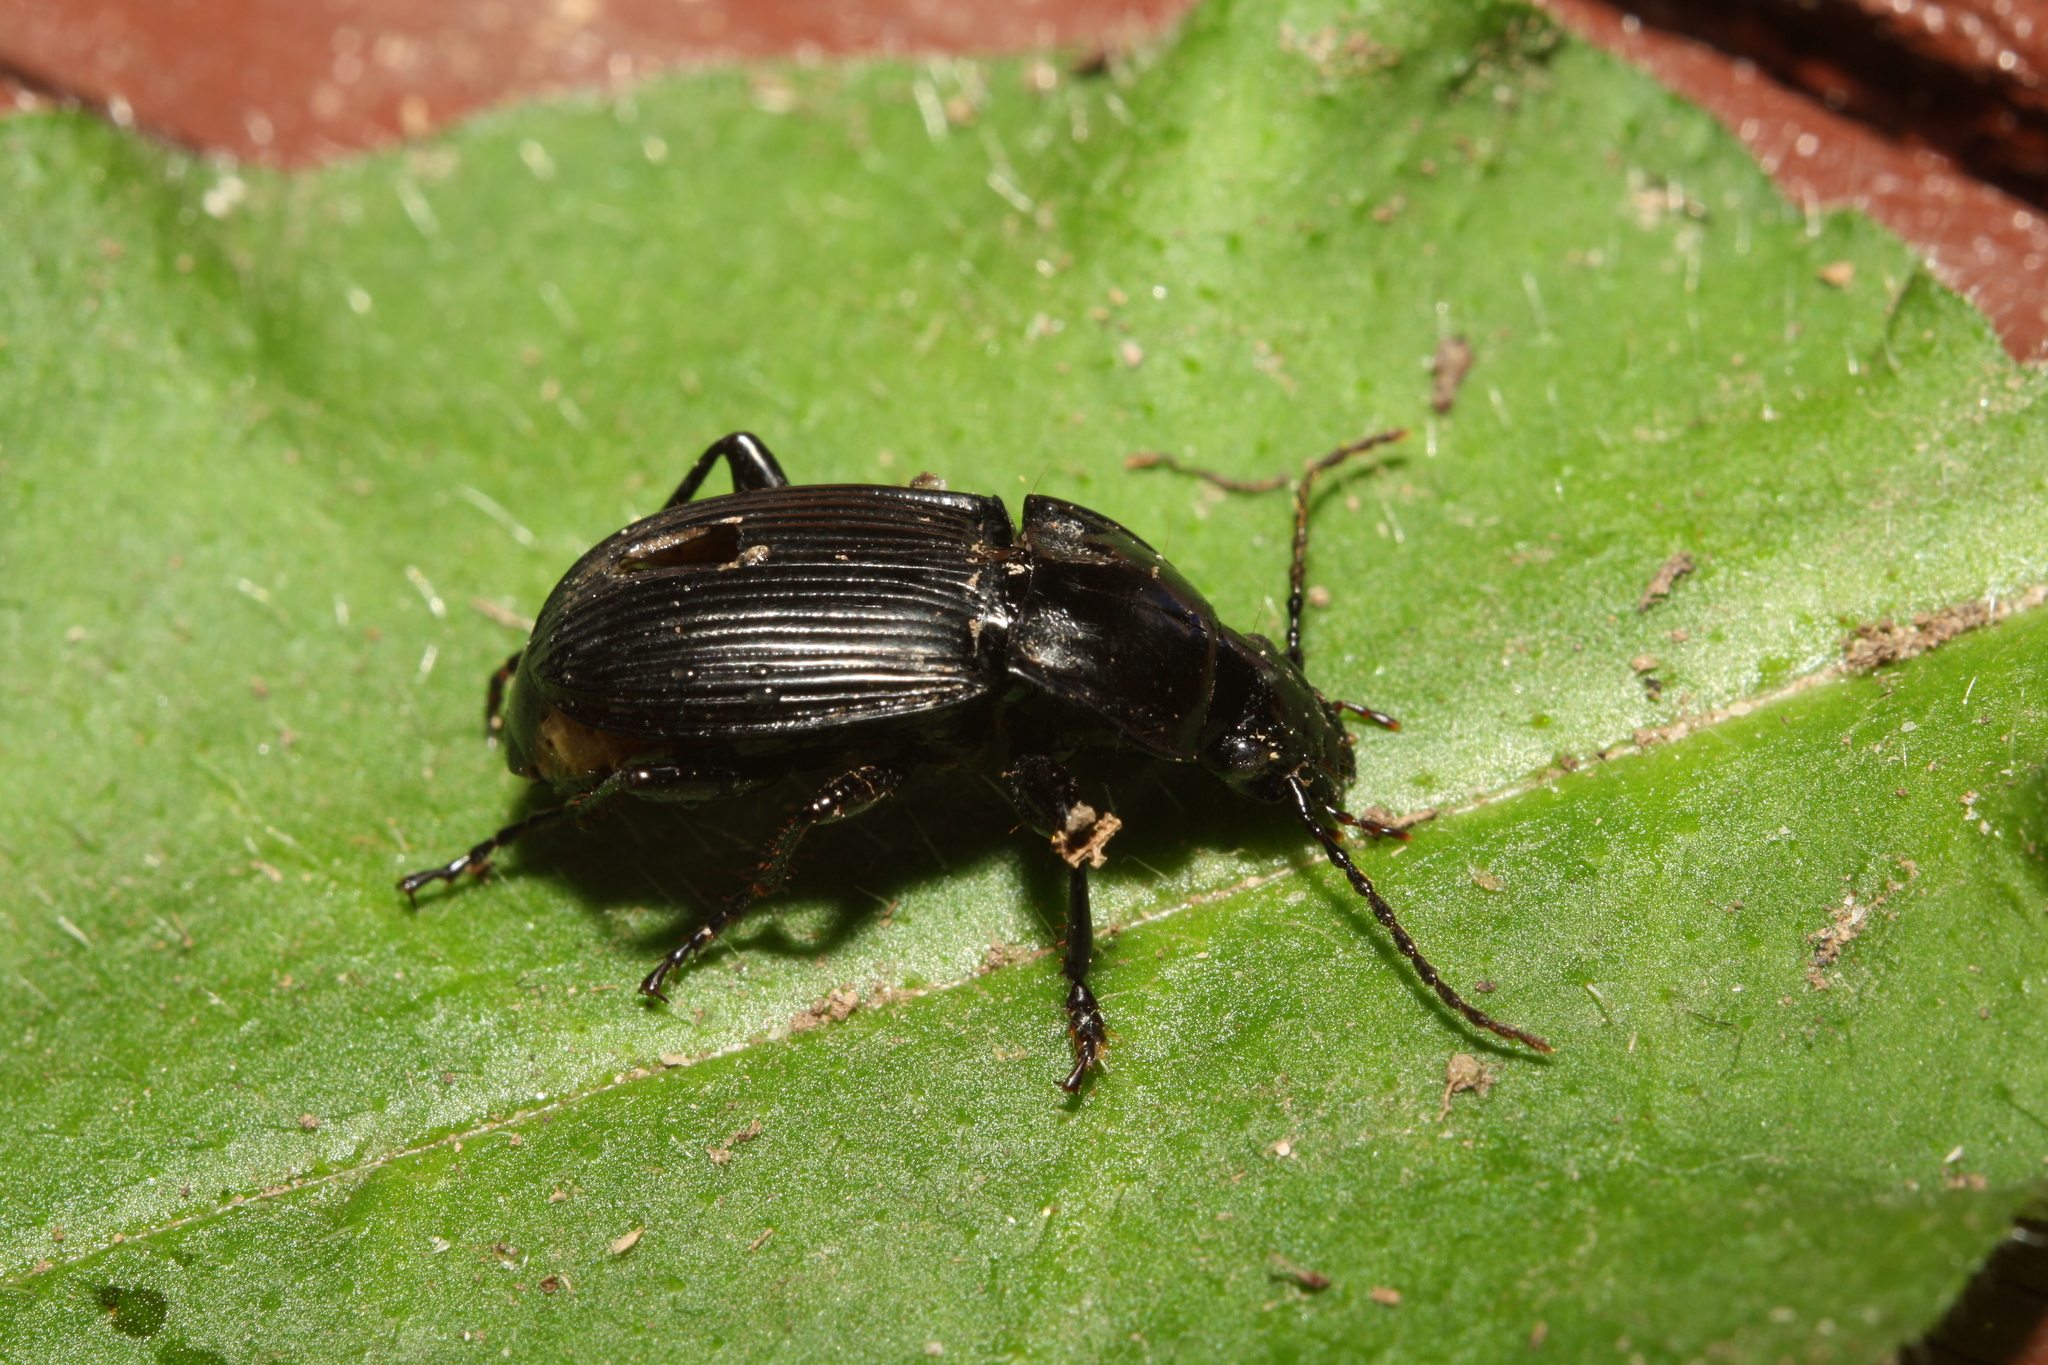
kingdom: Animalia
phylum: Arthropoda
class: Insecta
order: Coleoptera
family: Carabidae
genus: Abax
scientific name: Abax carinatus
